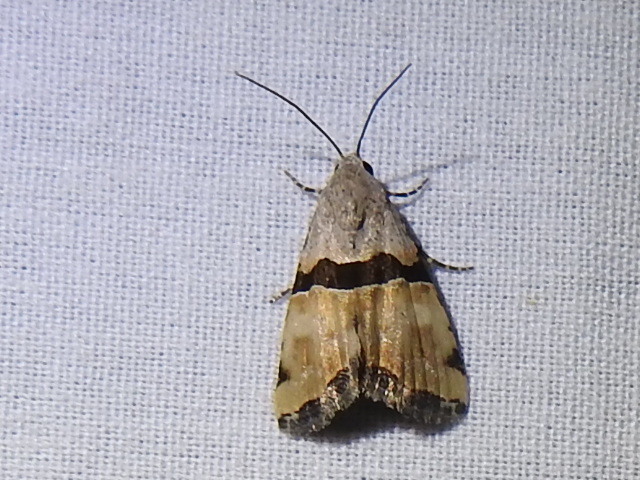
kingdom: Animalia
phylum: Arthropoda
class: Insecta
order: Lepidoptera
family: Noctuidae
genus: Cobubatha
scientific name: Cobubatha orthozona
